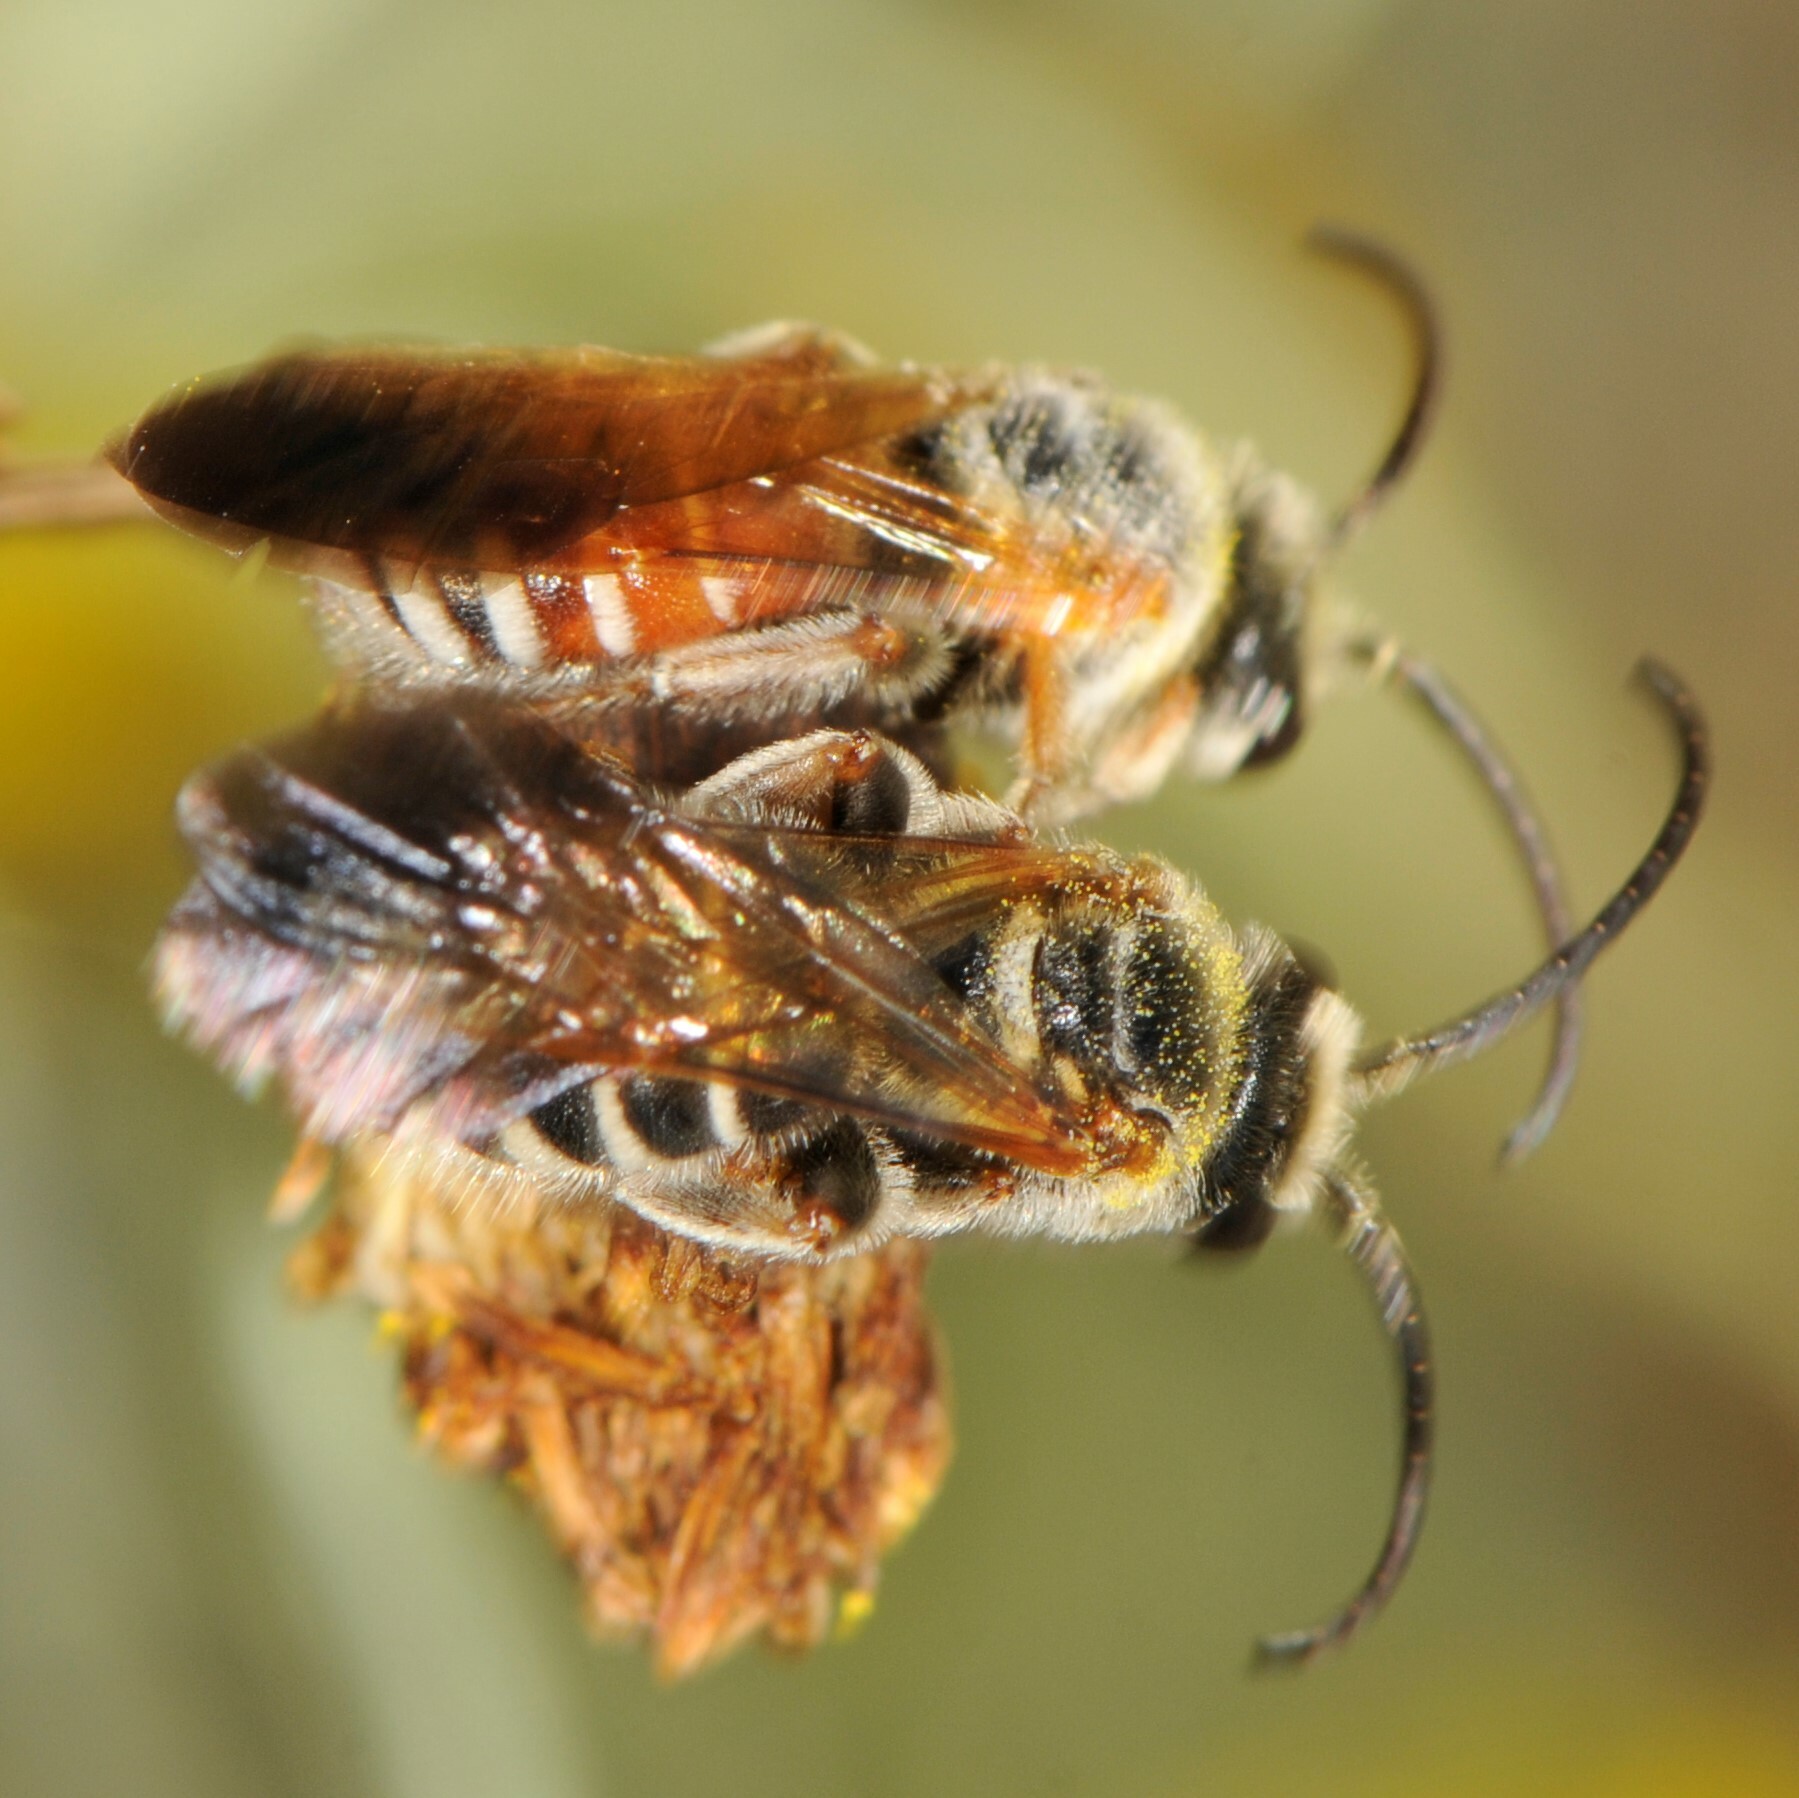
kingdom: Animalia
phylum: Arthropoda
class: Insecta
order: Hymenoptera
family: Halictidae
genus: Dieunomia
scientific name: Dieunomia nevadensis
